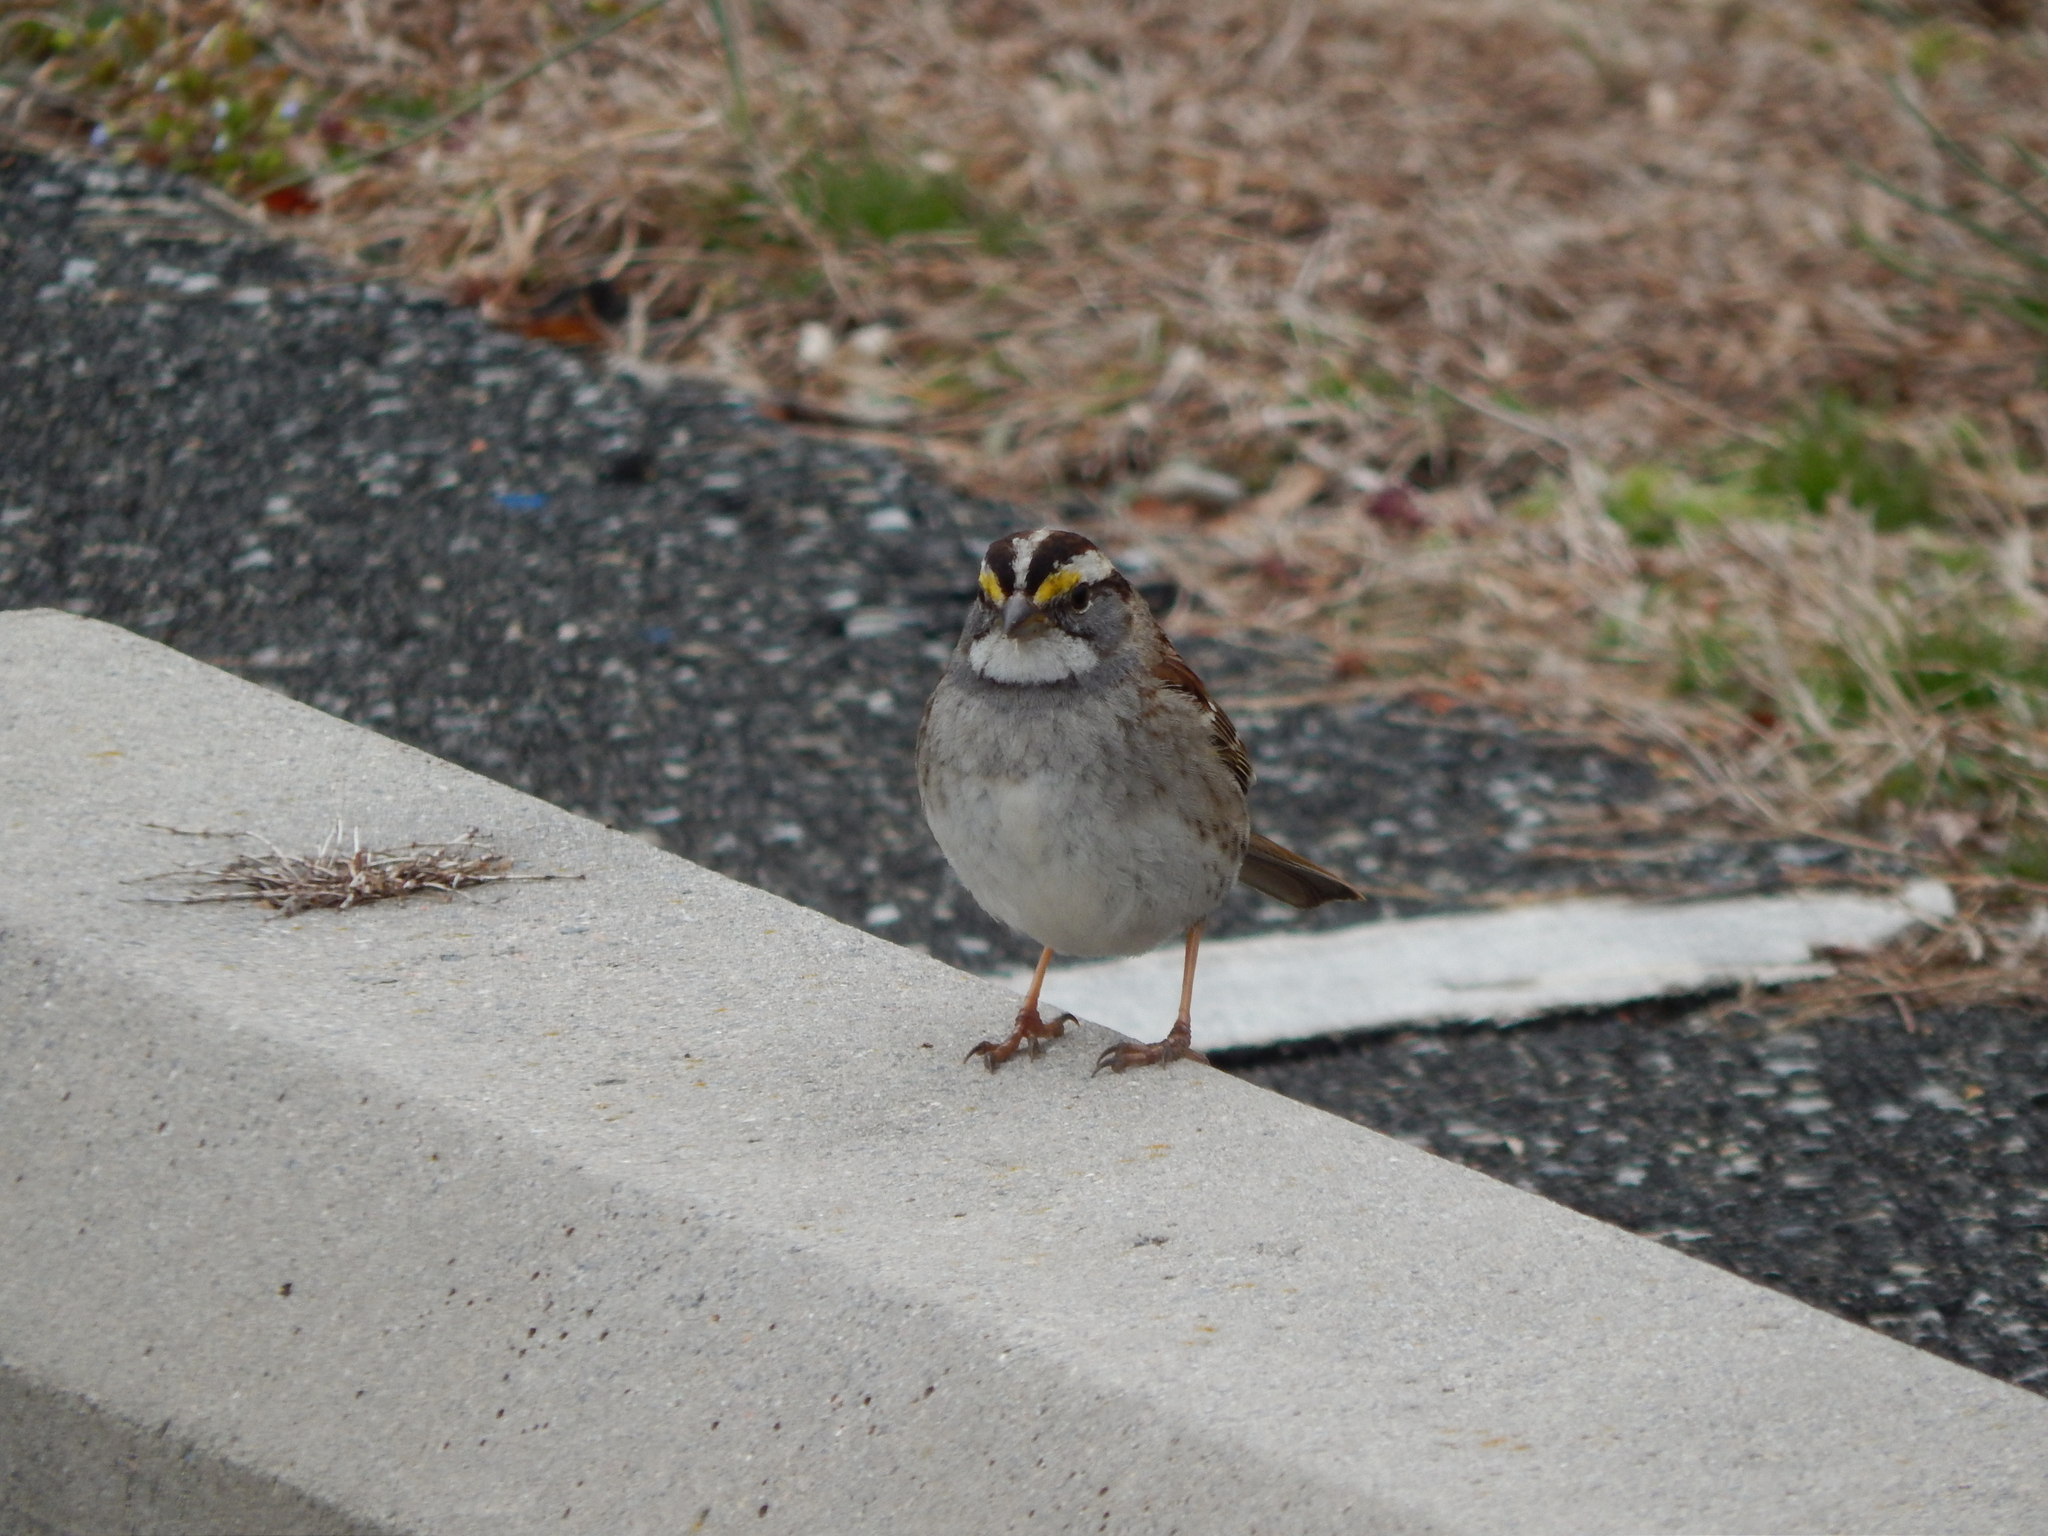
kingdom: Animalia
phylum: Chordata
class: Aves
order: Passeriformes
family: Passerellidae
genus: Zonotrichia
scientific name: Zonotrichia albicollis
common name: White-throated sparrow
